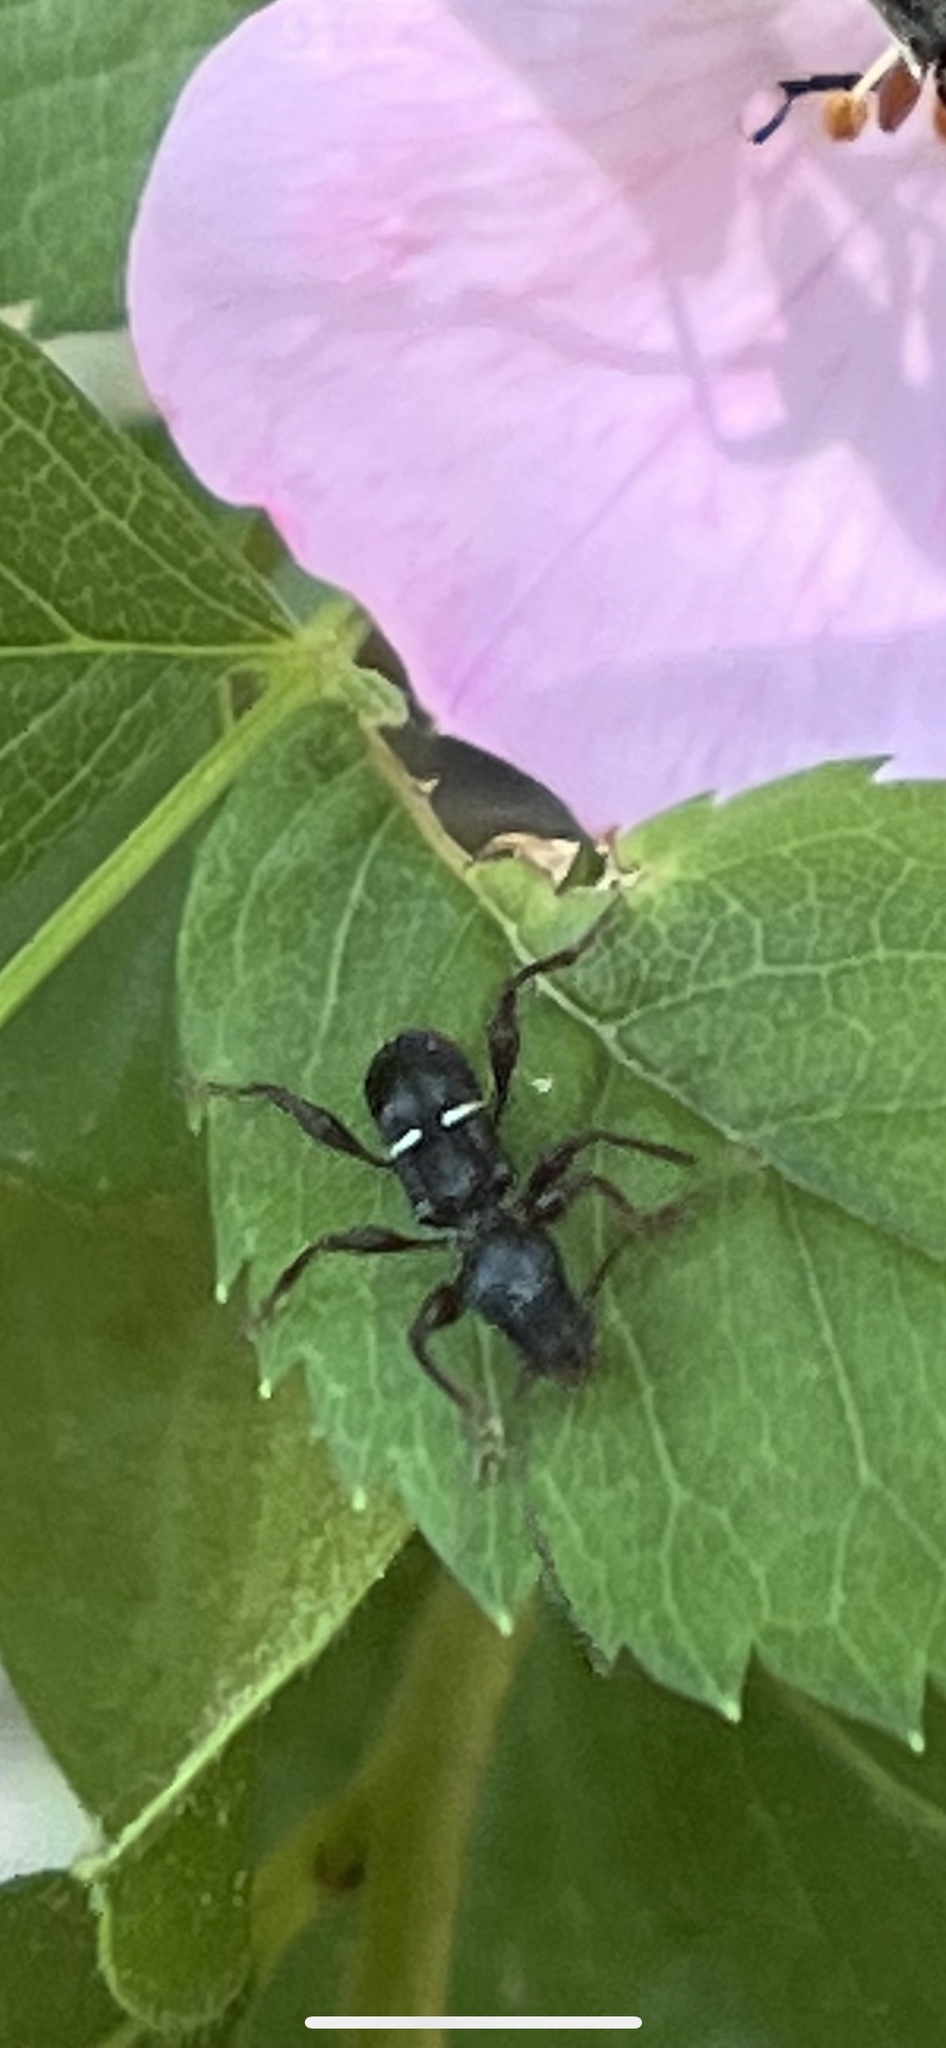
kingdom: Animalia
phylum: Arthropoda
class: Insecta
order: Coleoptera
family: Cerambycidae
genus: Euderces
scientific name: Euderces picipes
